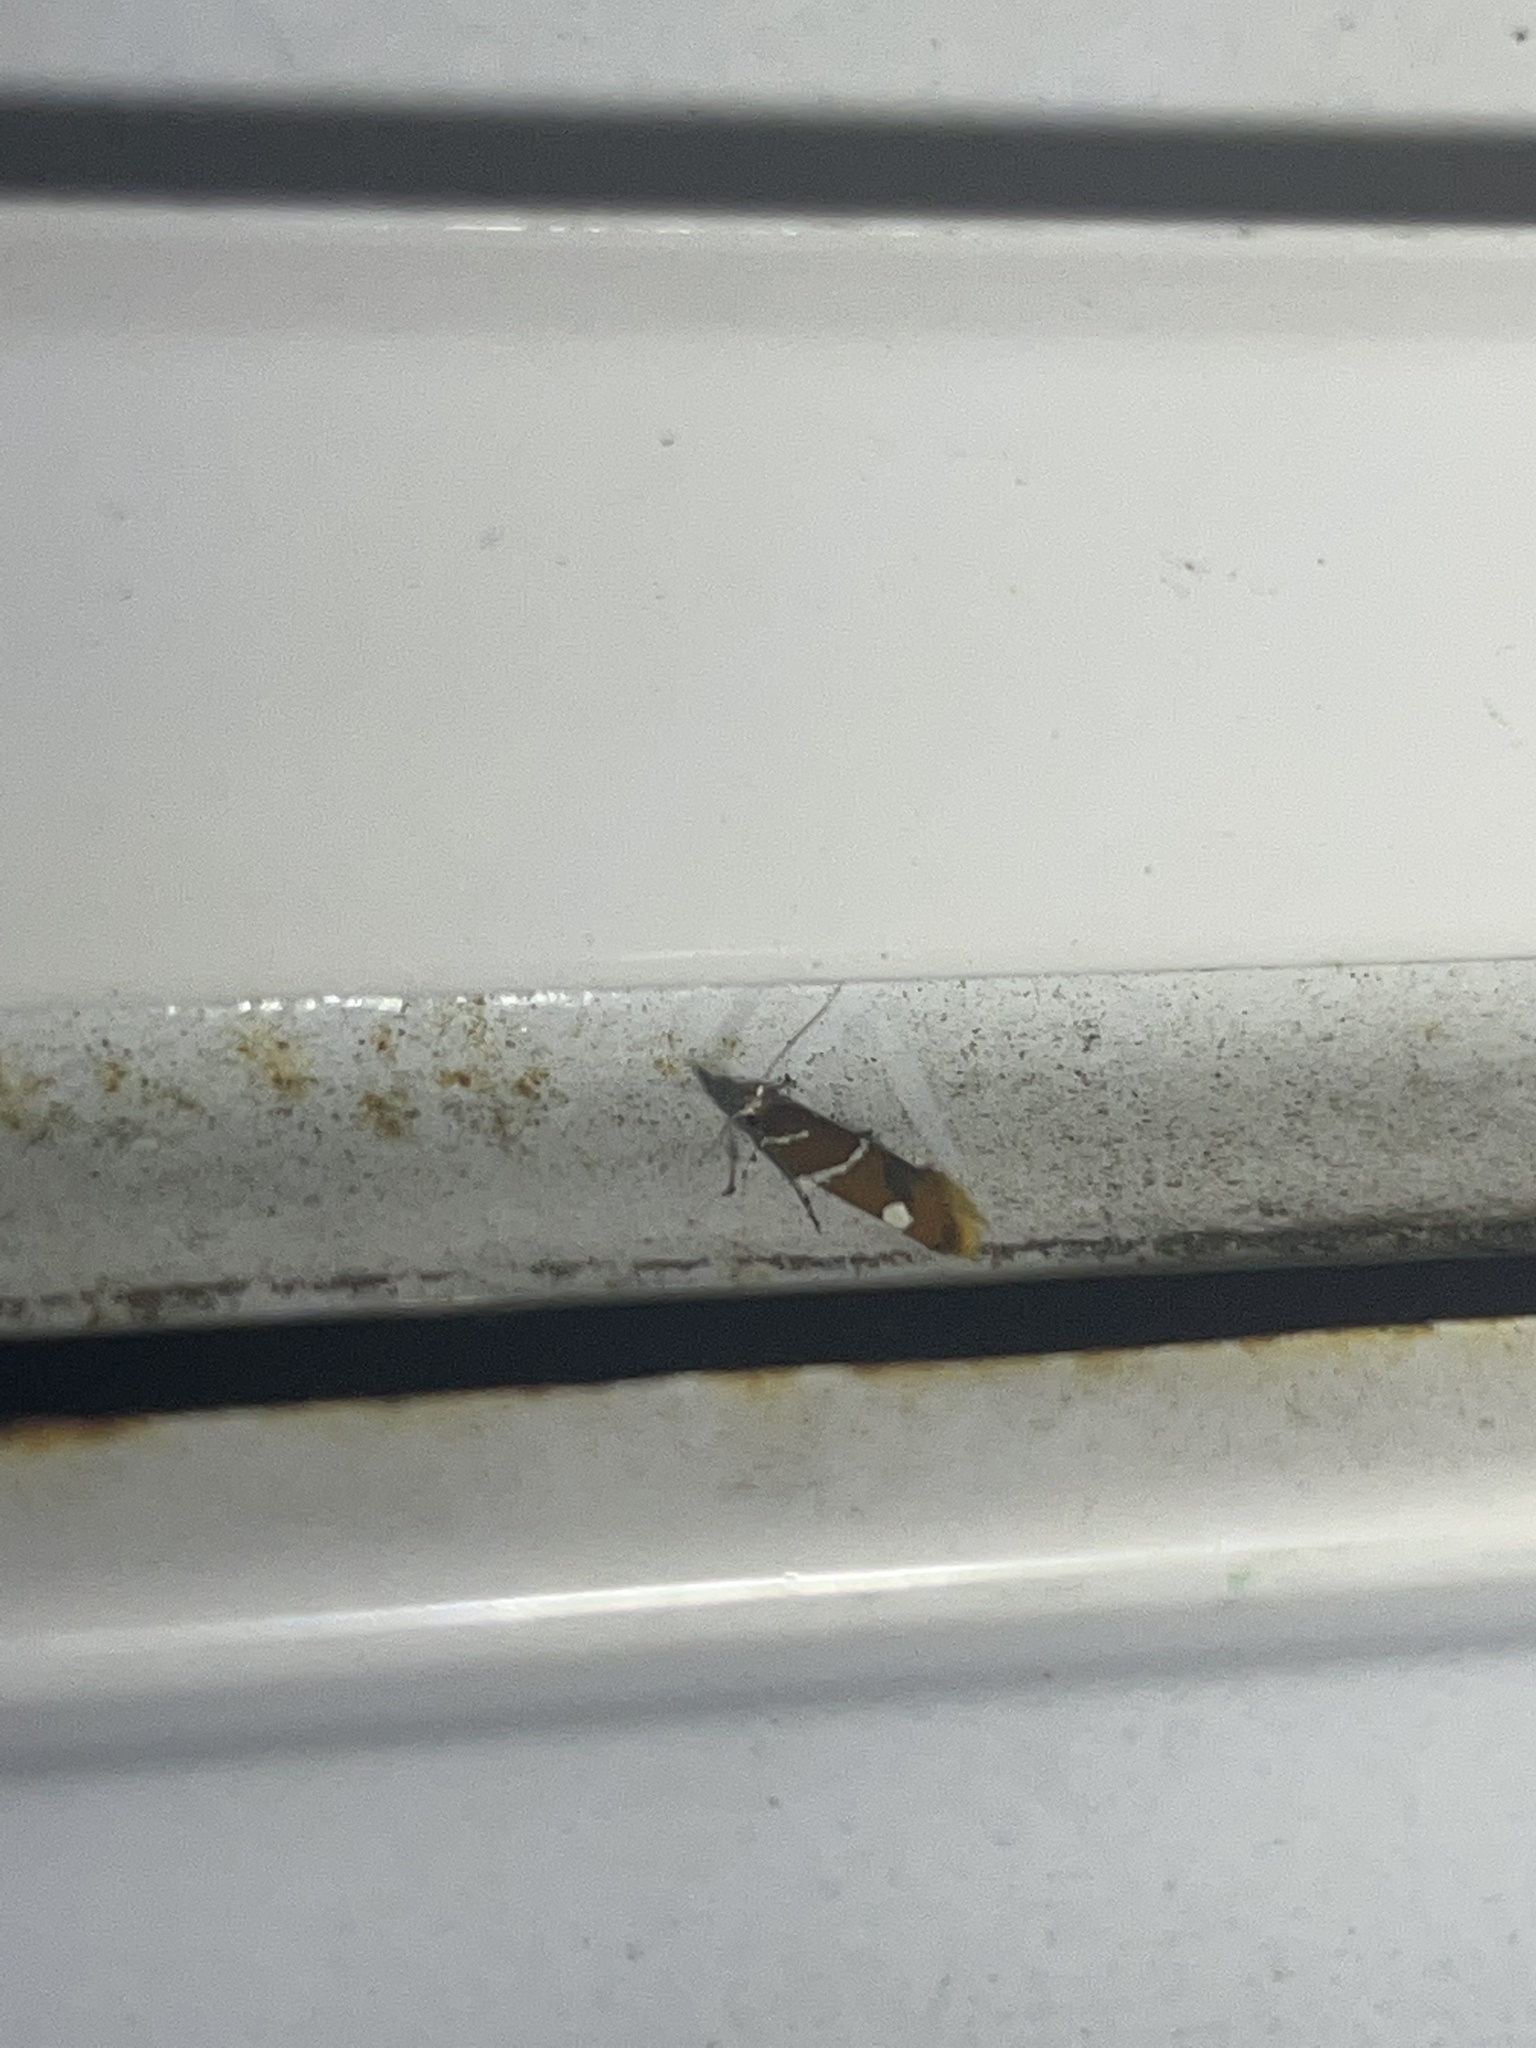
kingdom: Animalia
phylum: Arthropoda
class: Insecta
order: Lepidoptera
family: Oecophoridae
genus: Promalactis
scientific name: Promalactis suzukiella
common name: Moth
